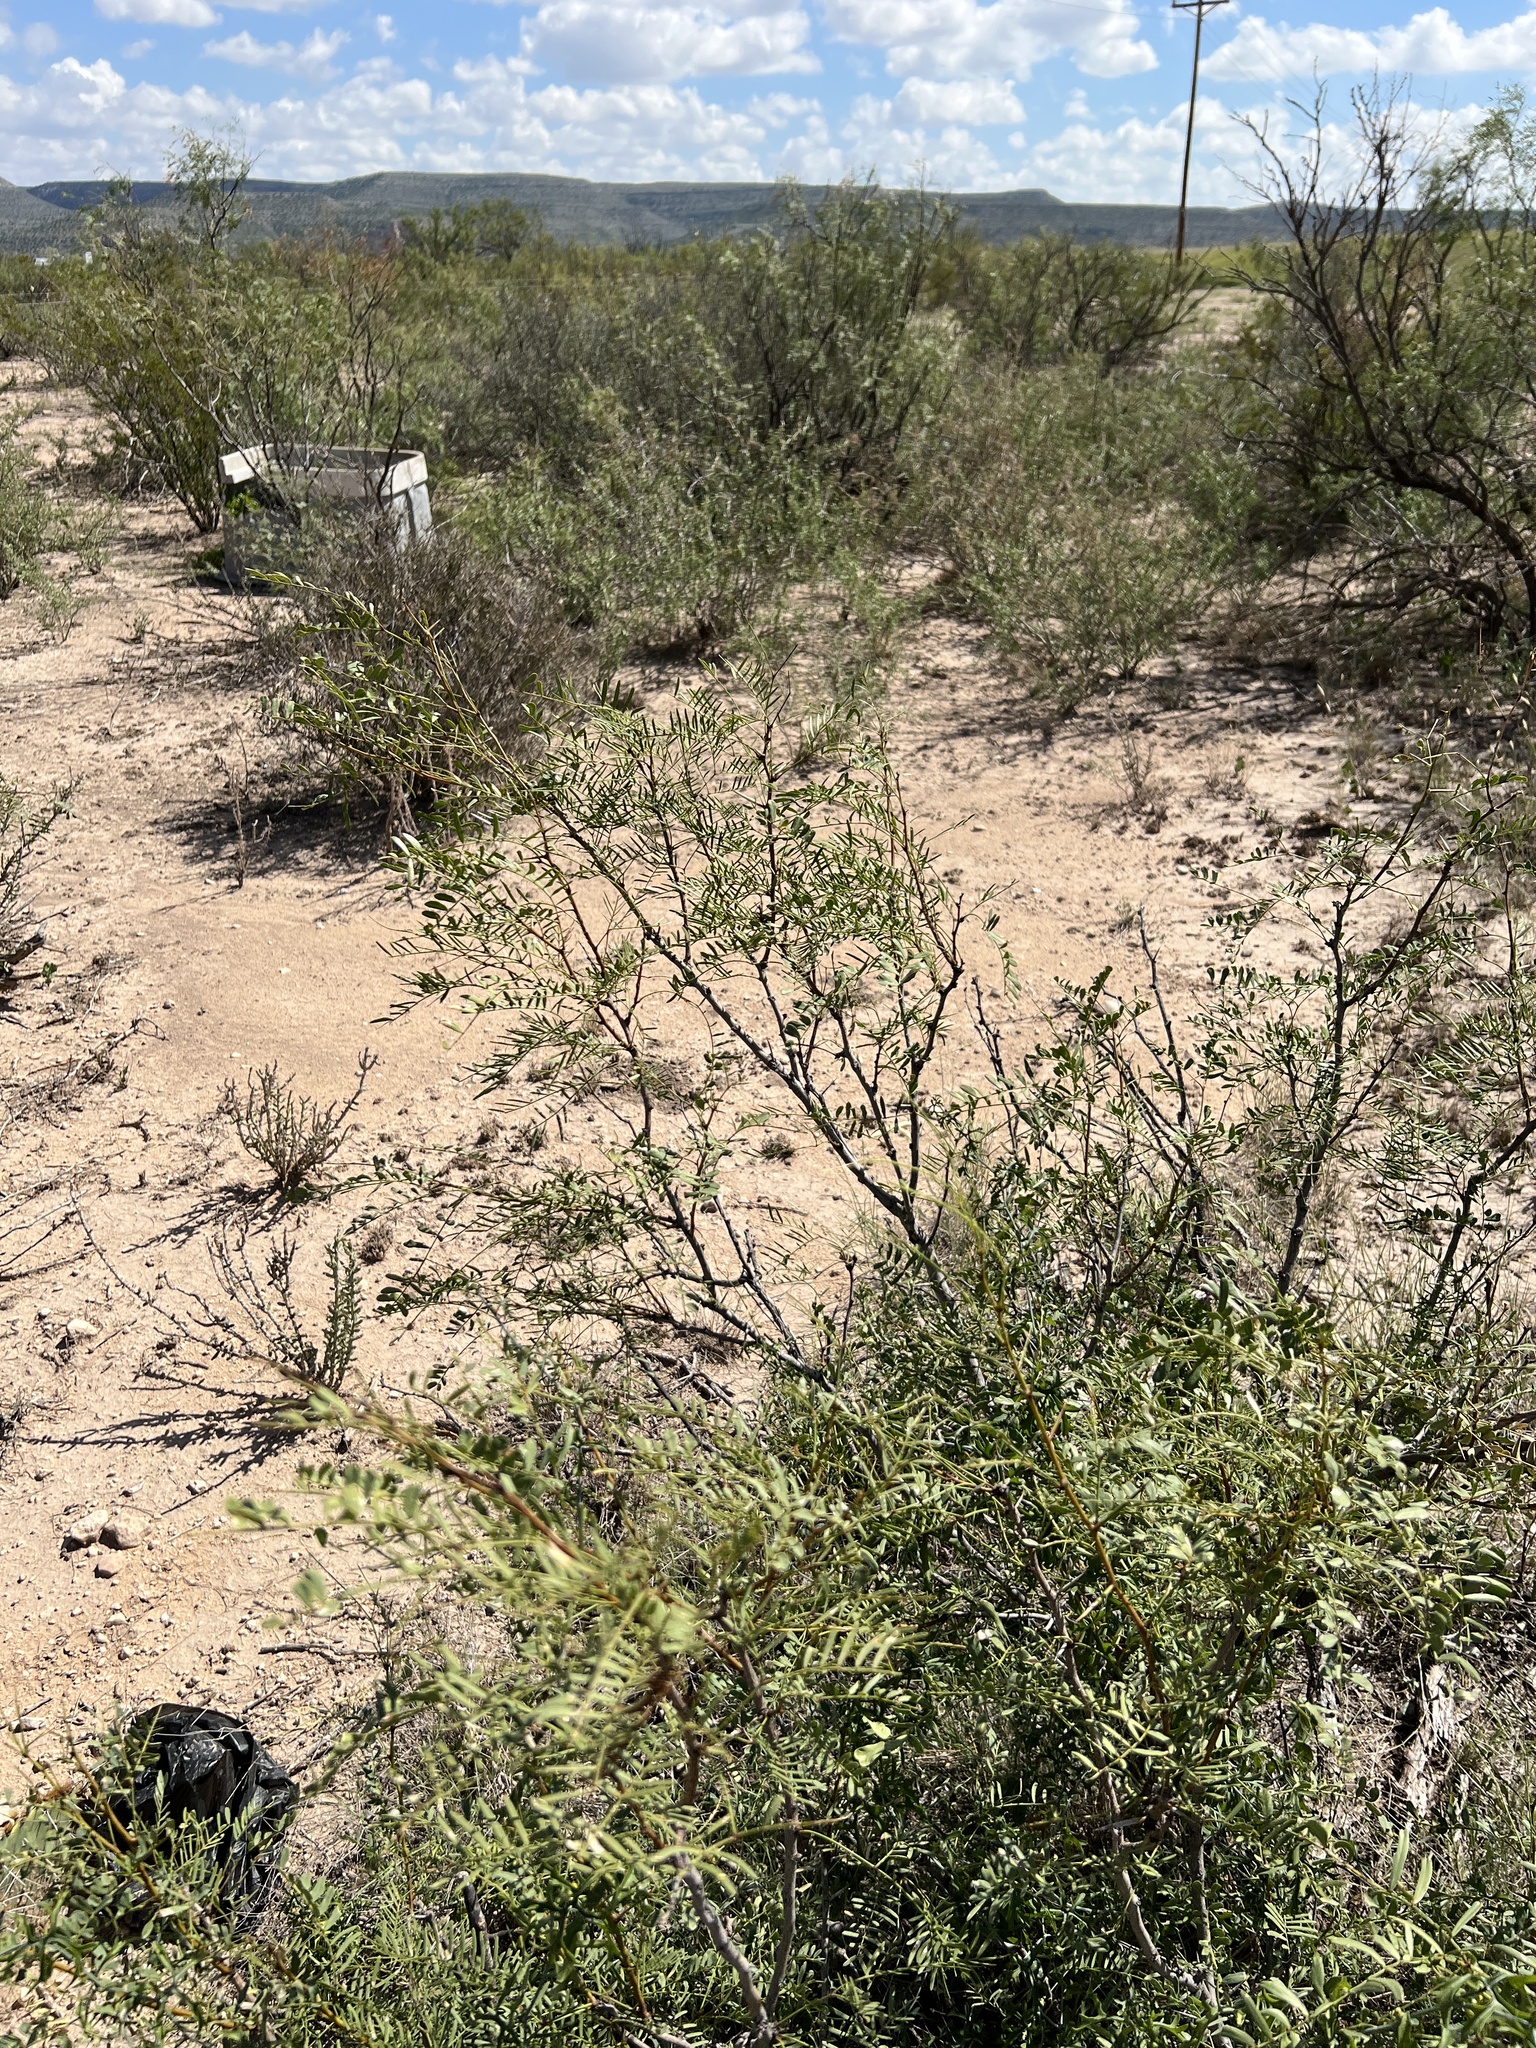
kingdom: Plantae
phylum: Tracheophyta
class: Magnoliopsida
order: Fabales
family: Fabaceae
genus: Prosopis
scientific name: Prosopis glandulosa
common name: Honey mesquite
